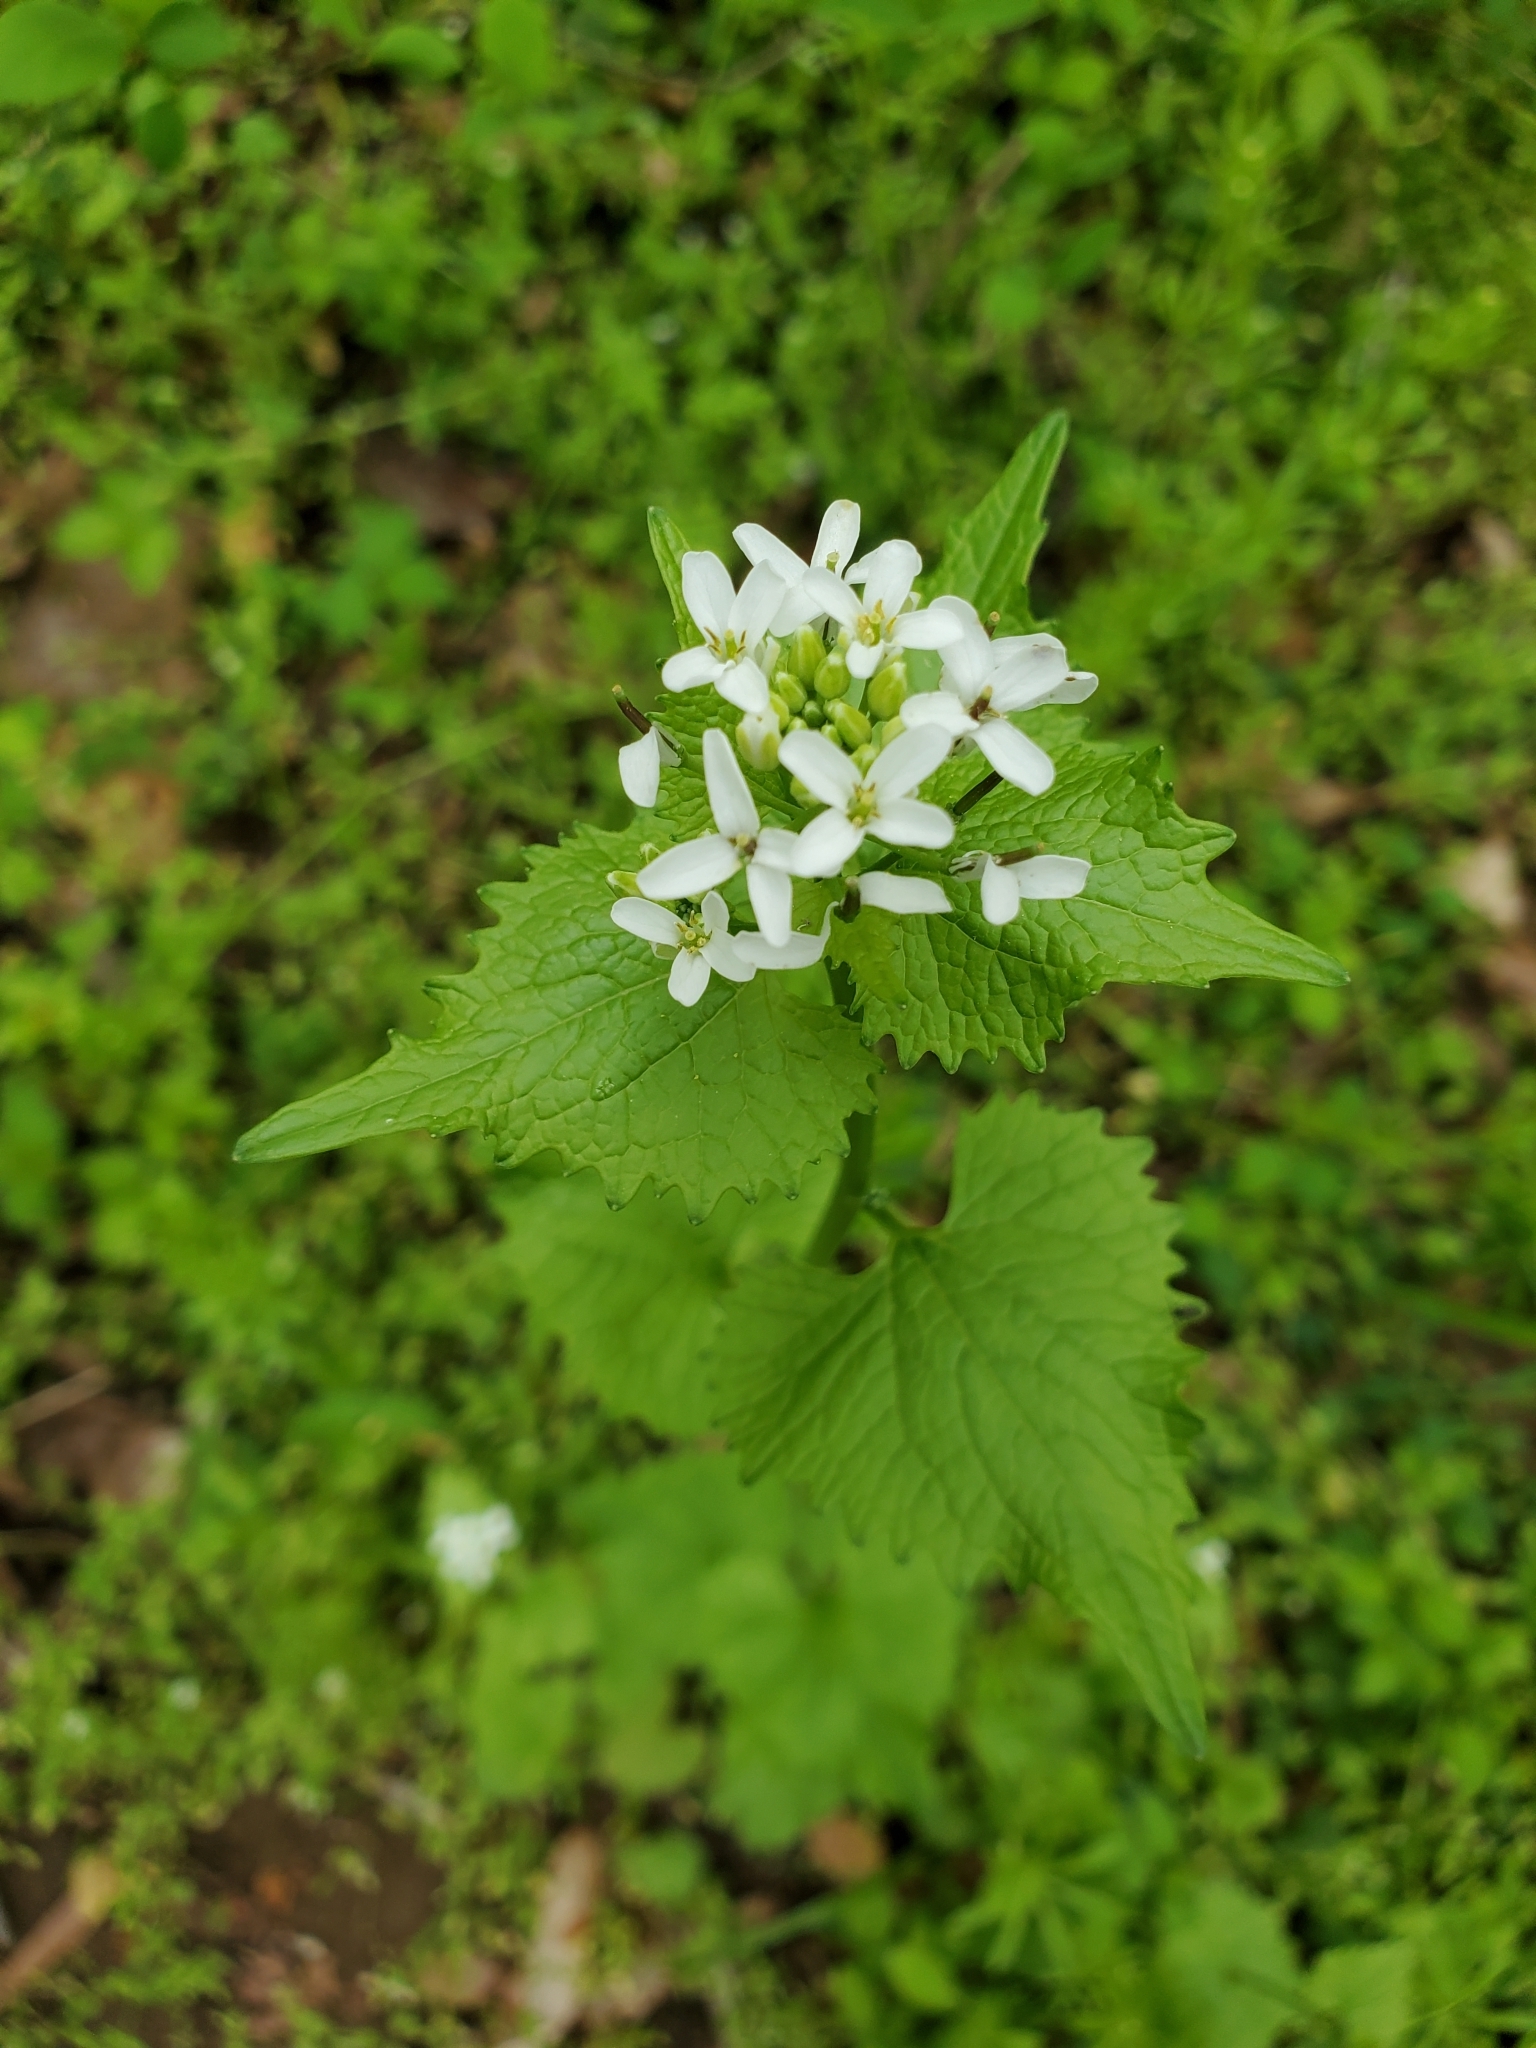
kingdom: Plantae
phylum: Tracheophyta
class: Magnoliopsida
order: Brassicales
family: Brassicaceae
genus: Alliaria
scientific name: Alliaria petiolata
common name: Garlic mustard
